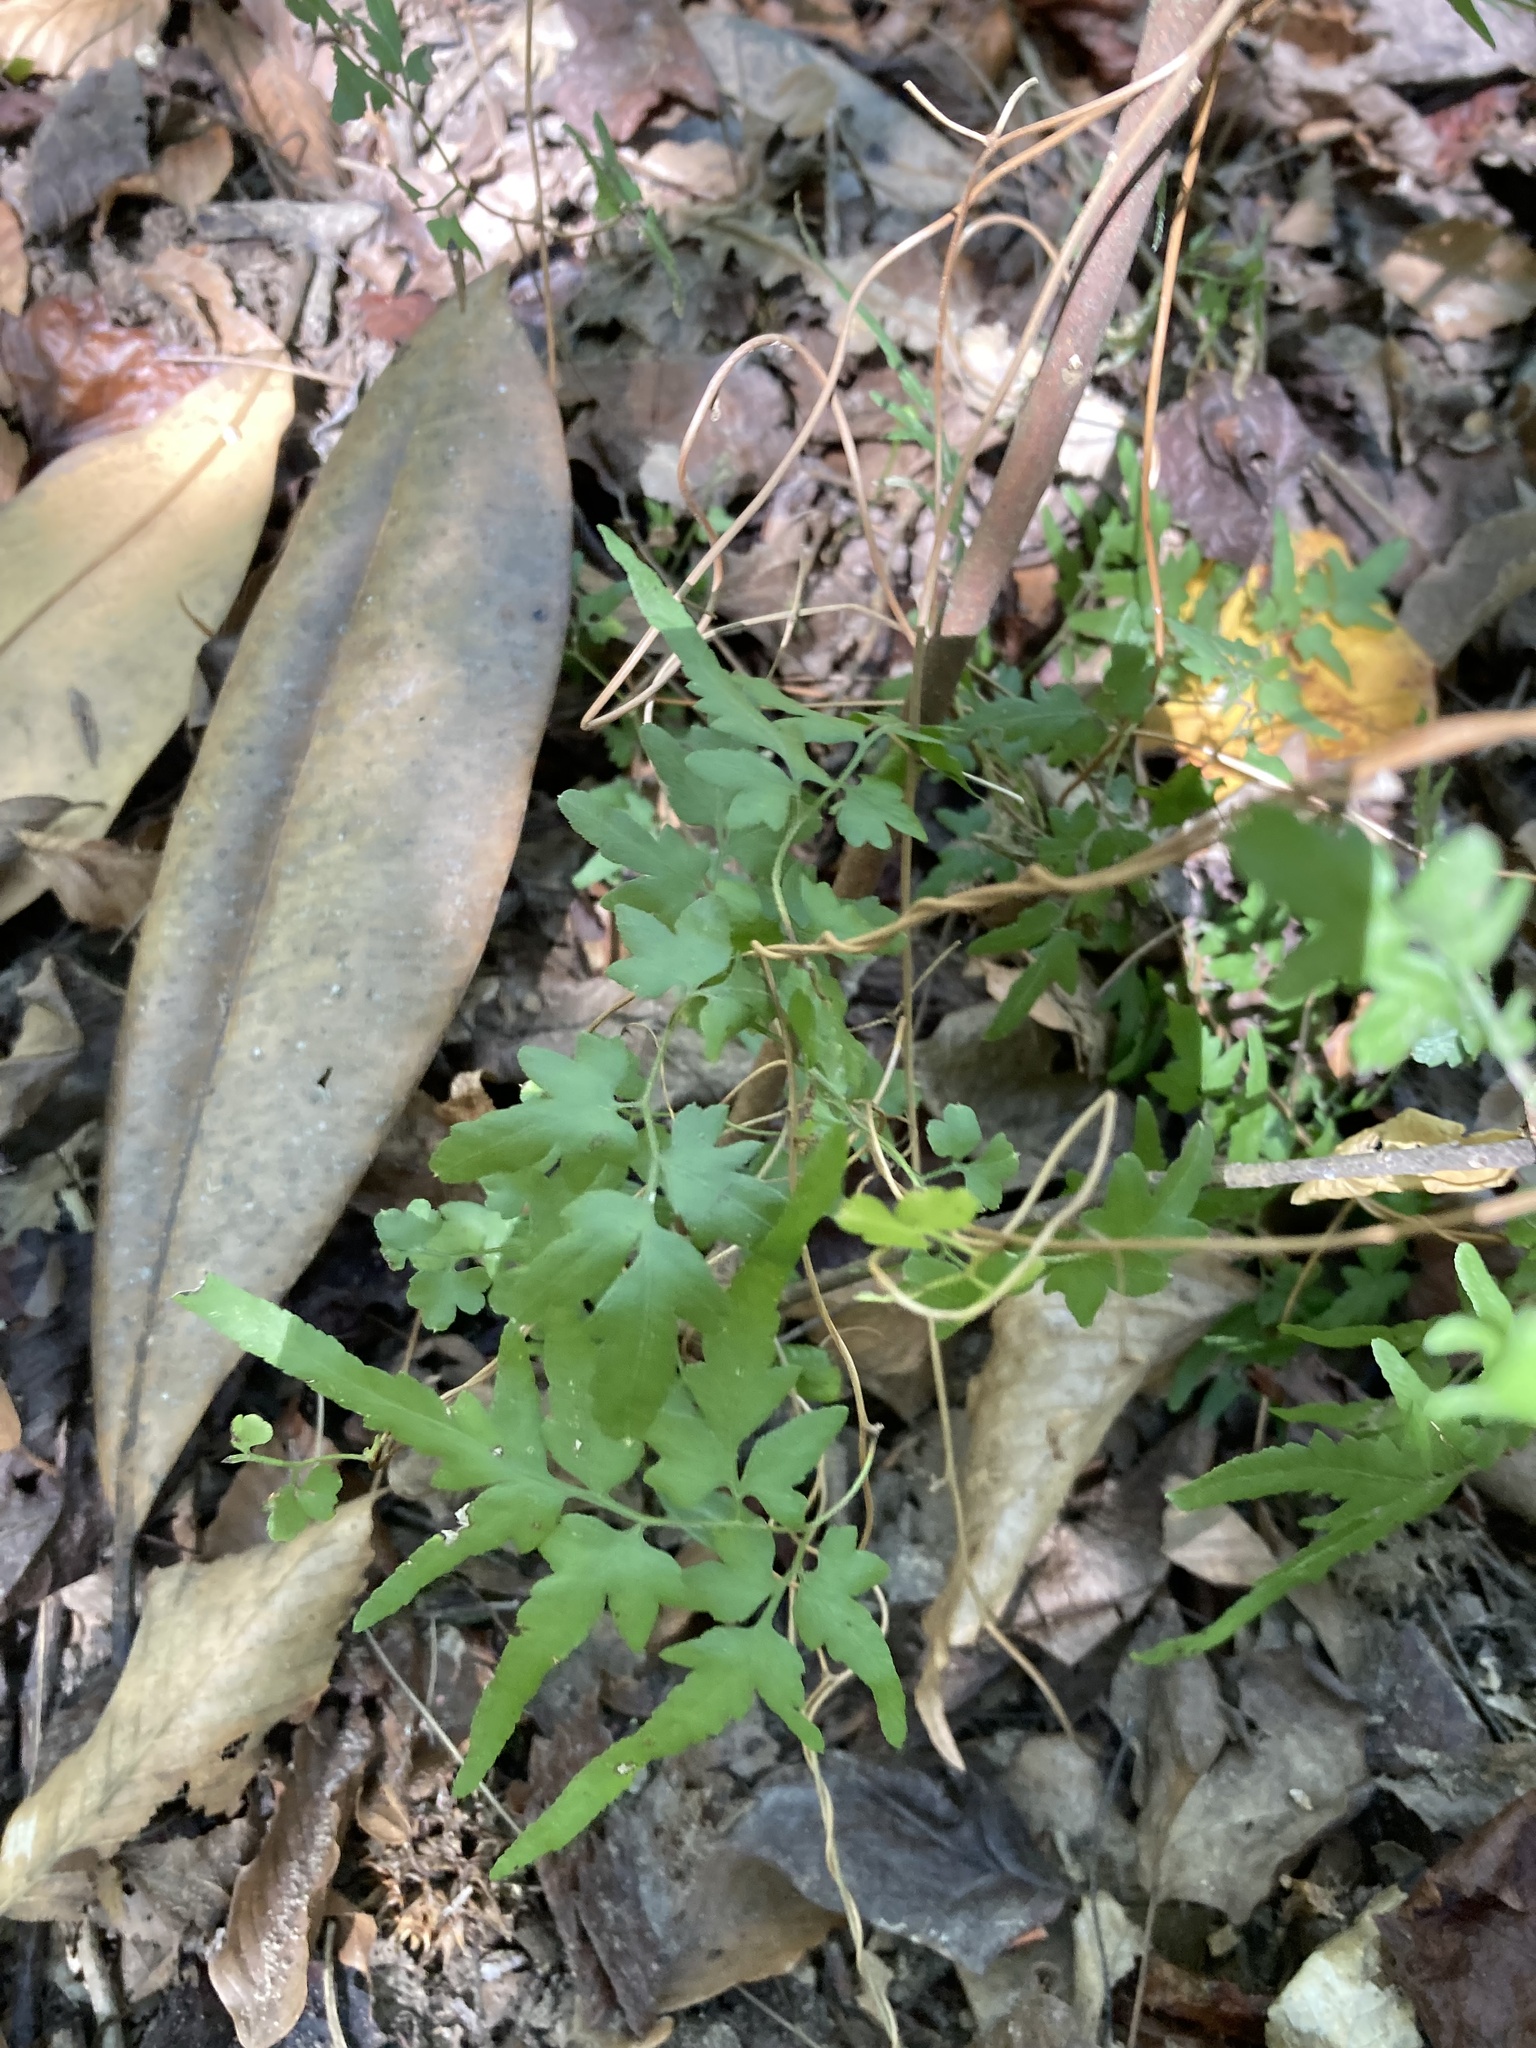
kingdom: Plantae
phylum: Tracheophyta
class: Polypodiopsida
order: Schizaeales
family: Lygodiaceae
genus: Lygodium
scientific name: Lygodium japonicum
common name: Japanese climbing fern
